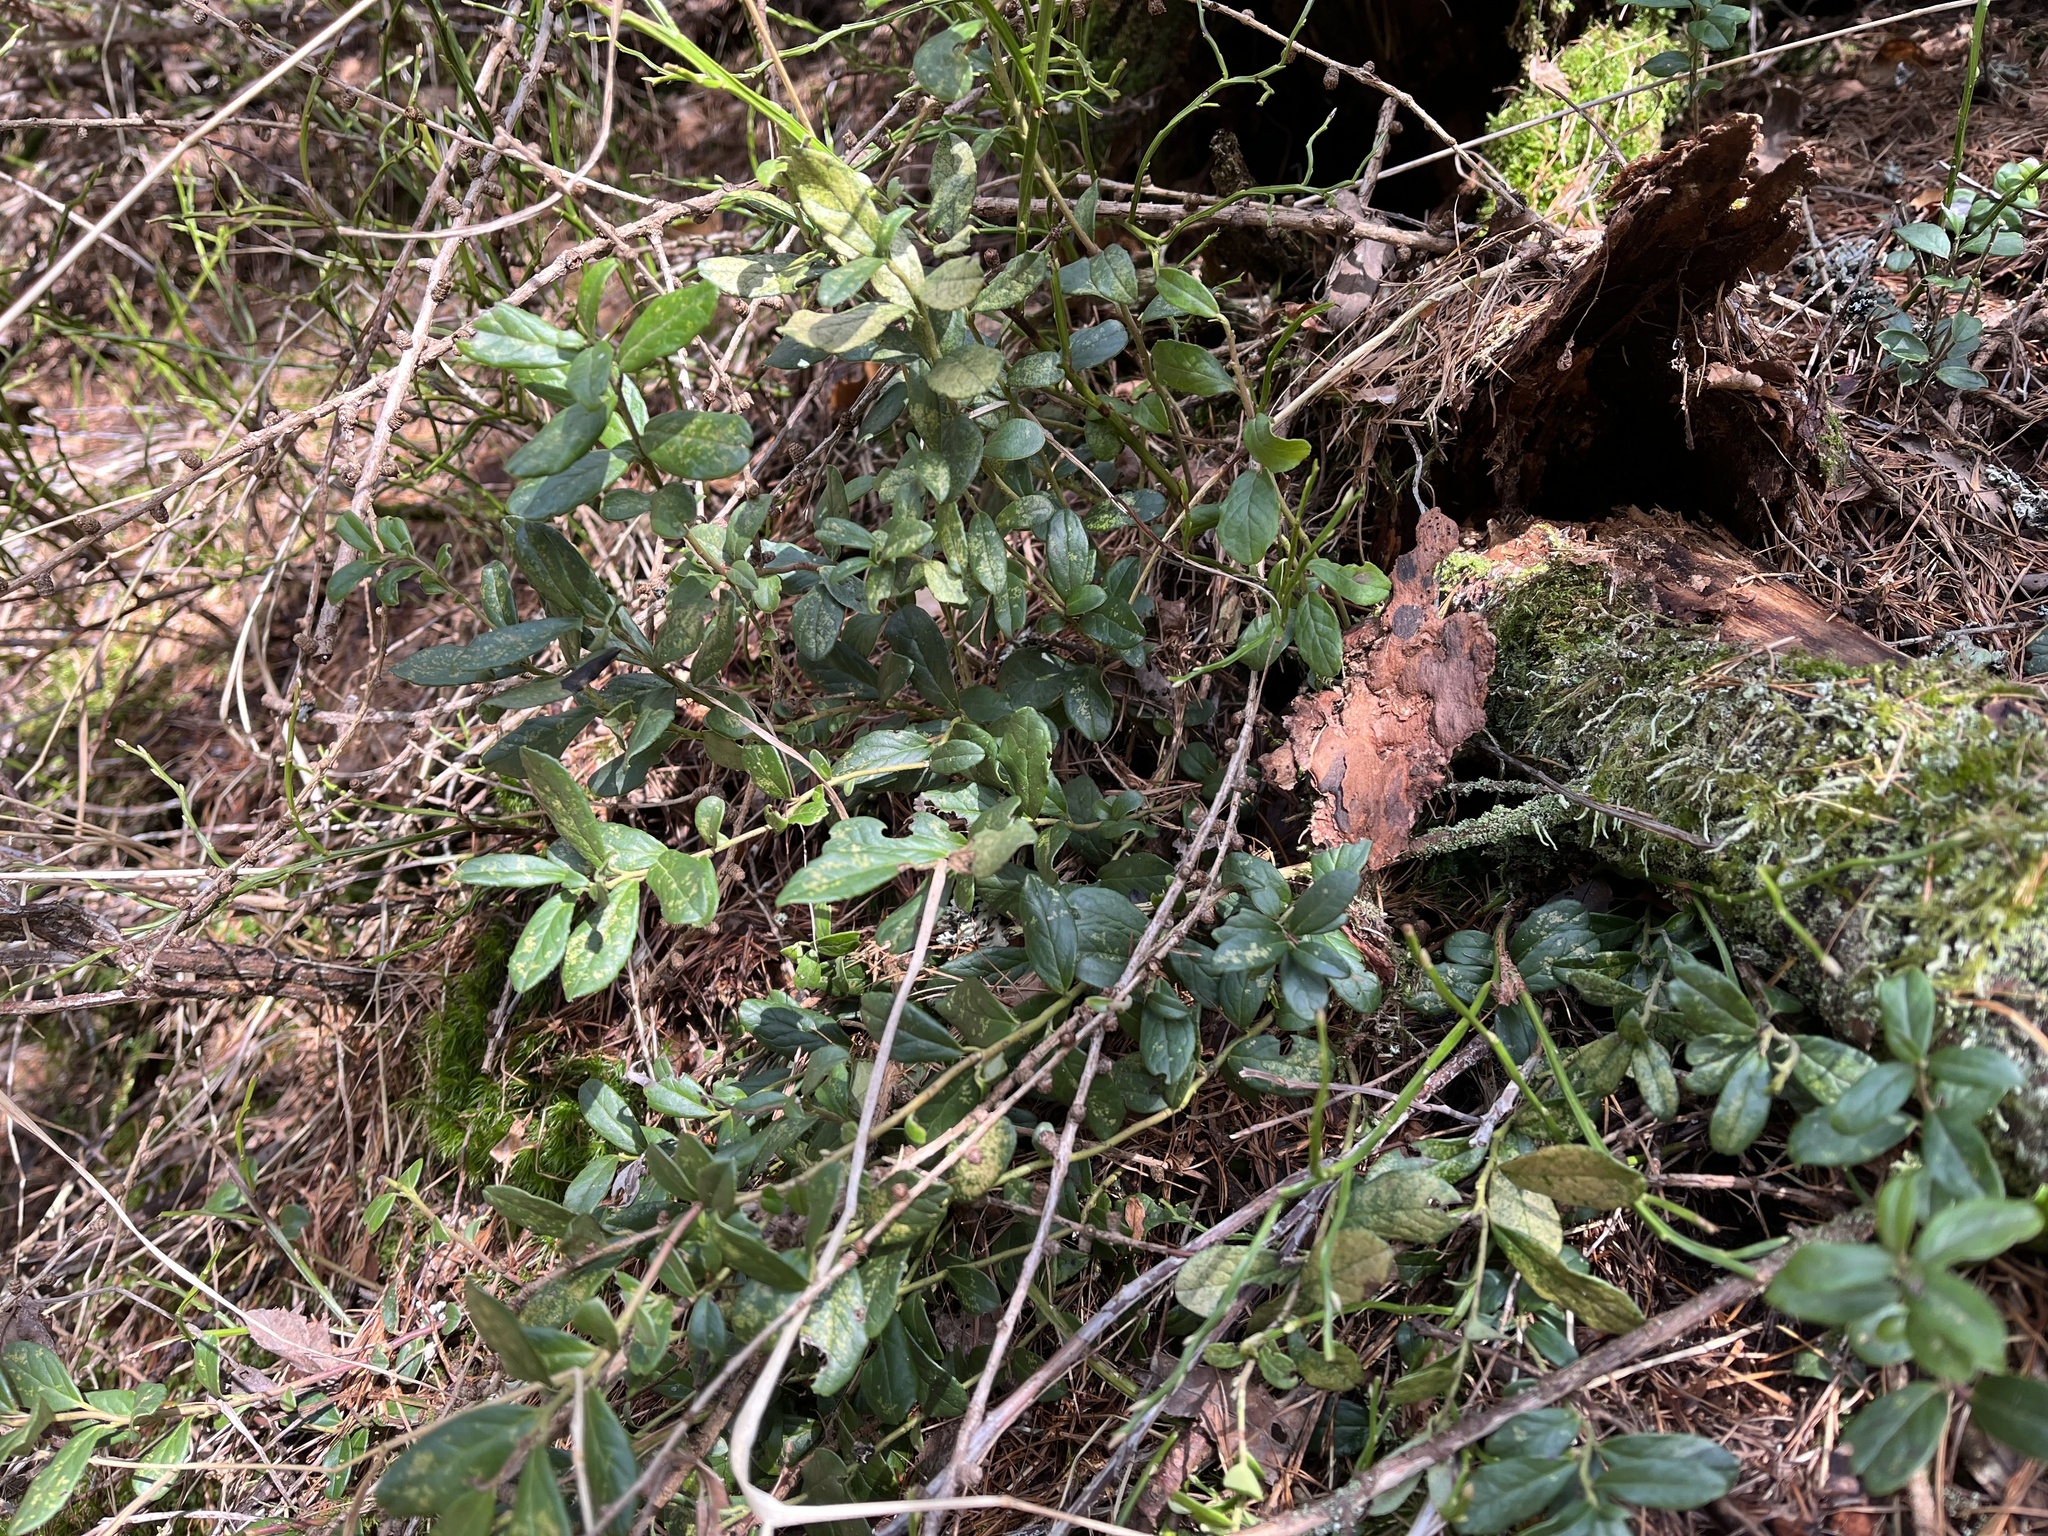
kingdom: Plantae
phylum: Tracheophyta
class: Magnoliopsida
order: Ericales
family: Ericaceae
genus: Vaccinium
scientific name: Vaccinium vitis-idaea
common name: Cowberry
